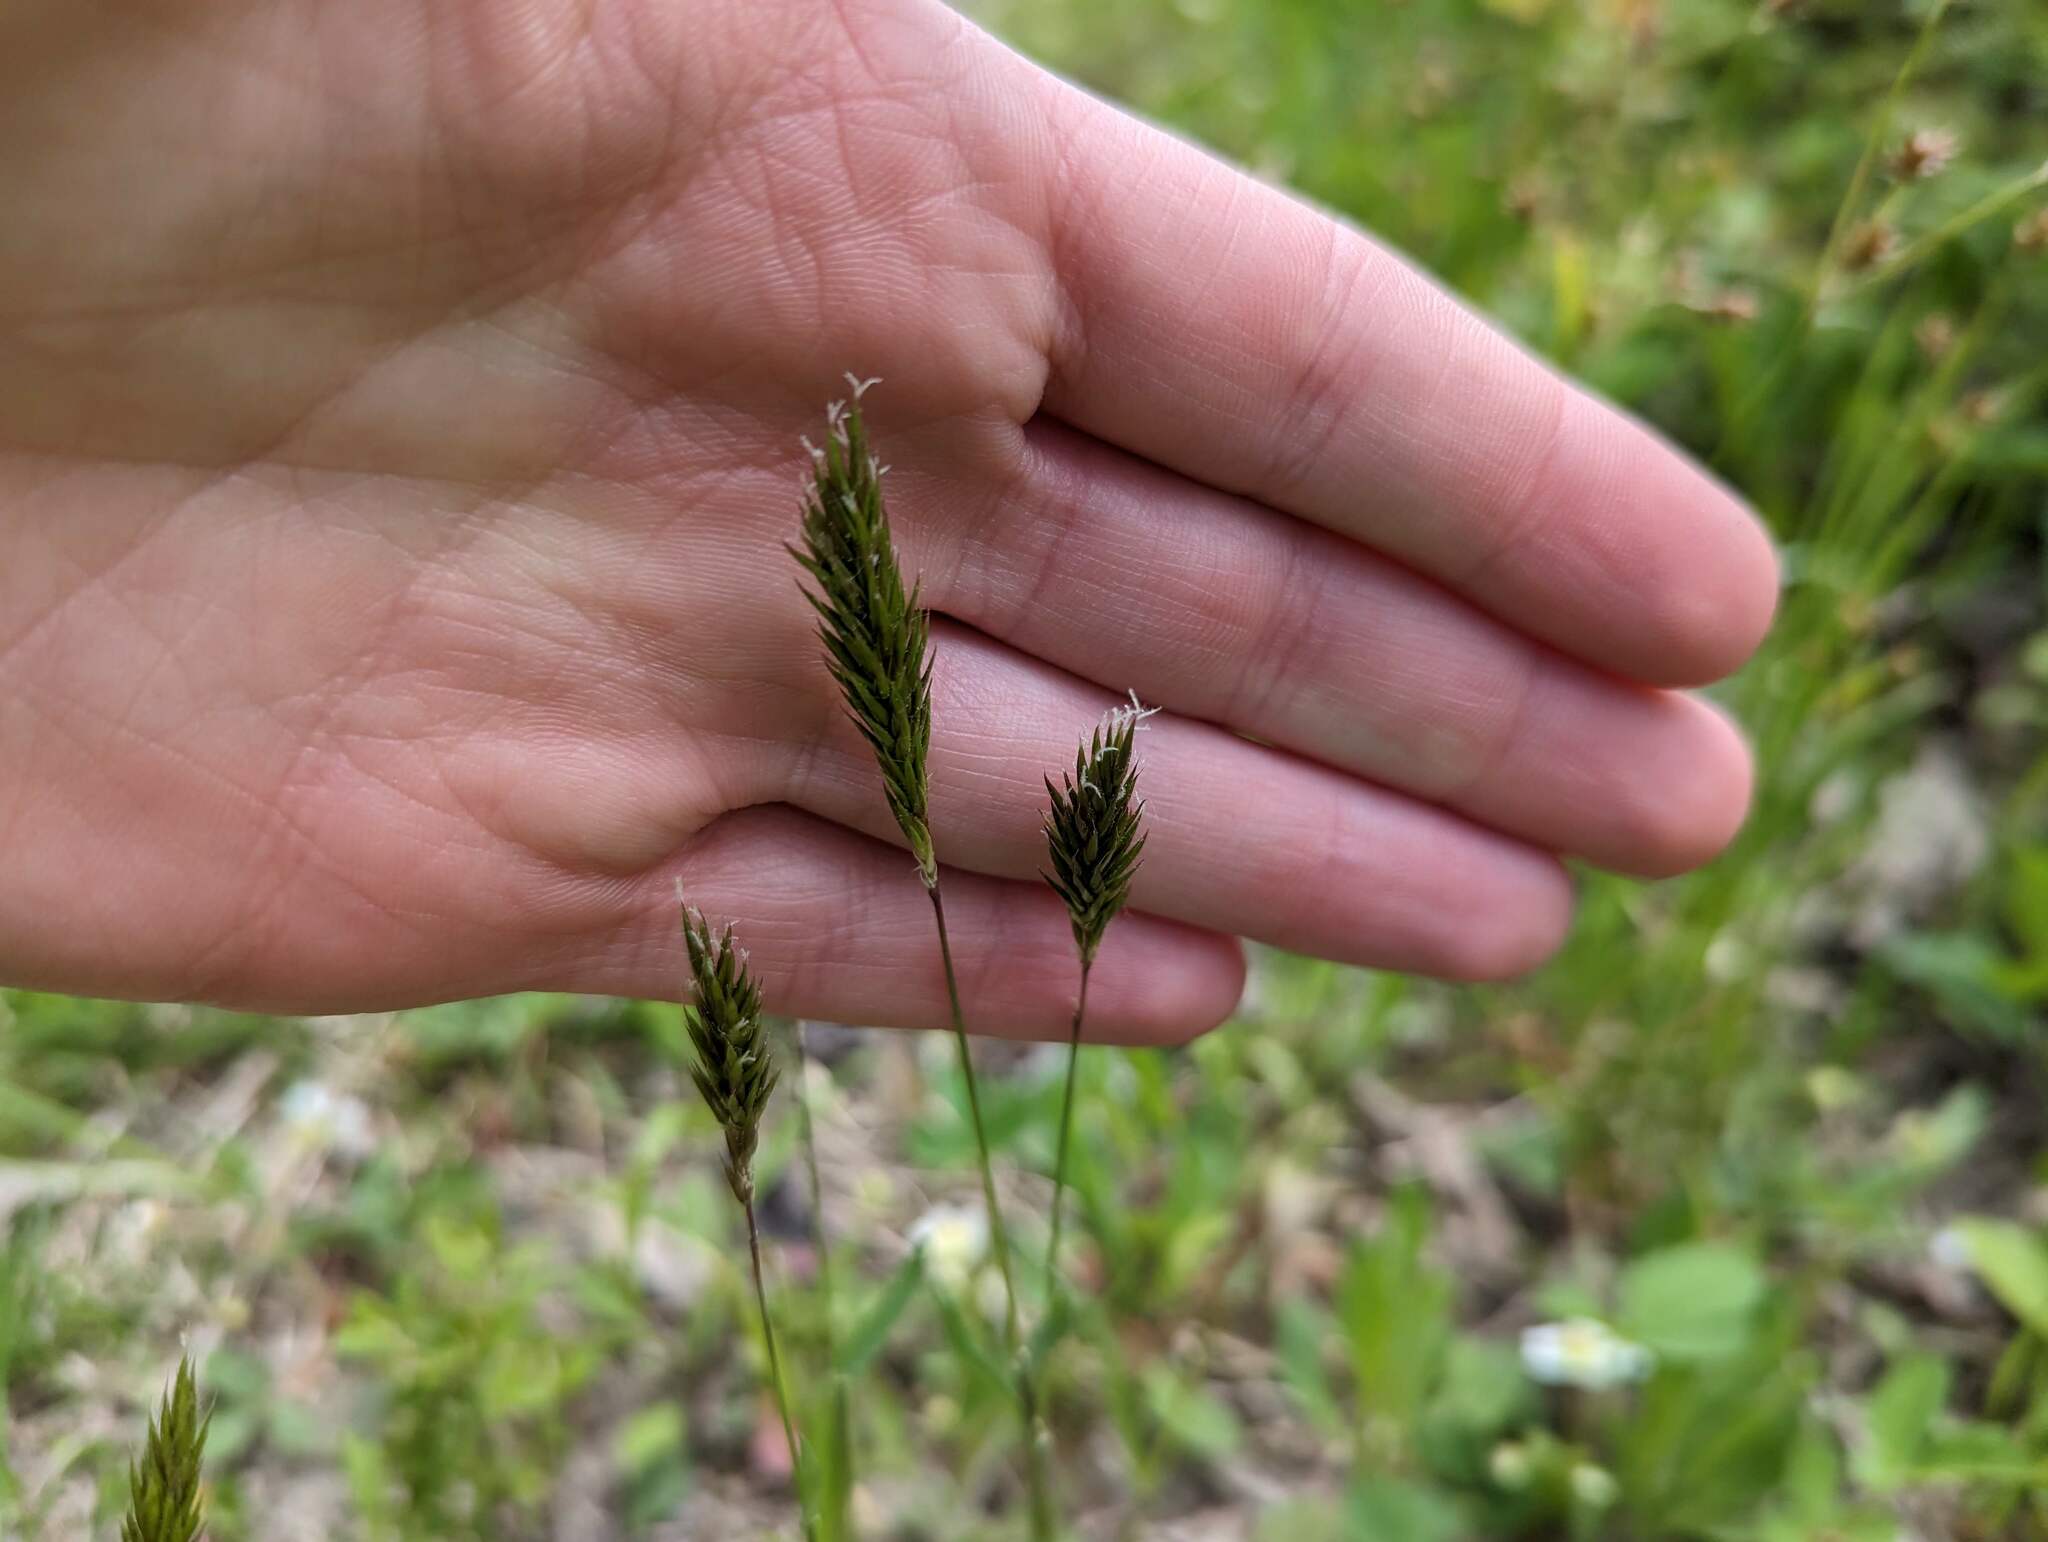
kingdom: Plantae
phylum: Tracheophyta
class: Liliopsida
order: Poales
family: Poaceae
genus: Anthoxanthum
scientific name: Anthoxanthum odoratum
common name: Sweet vernalgrass
